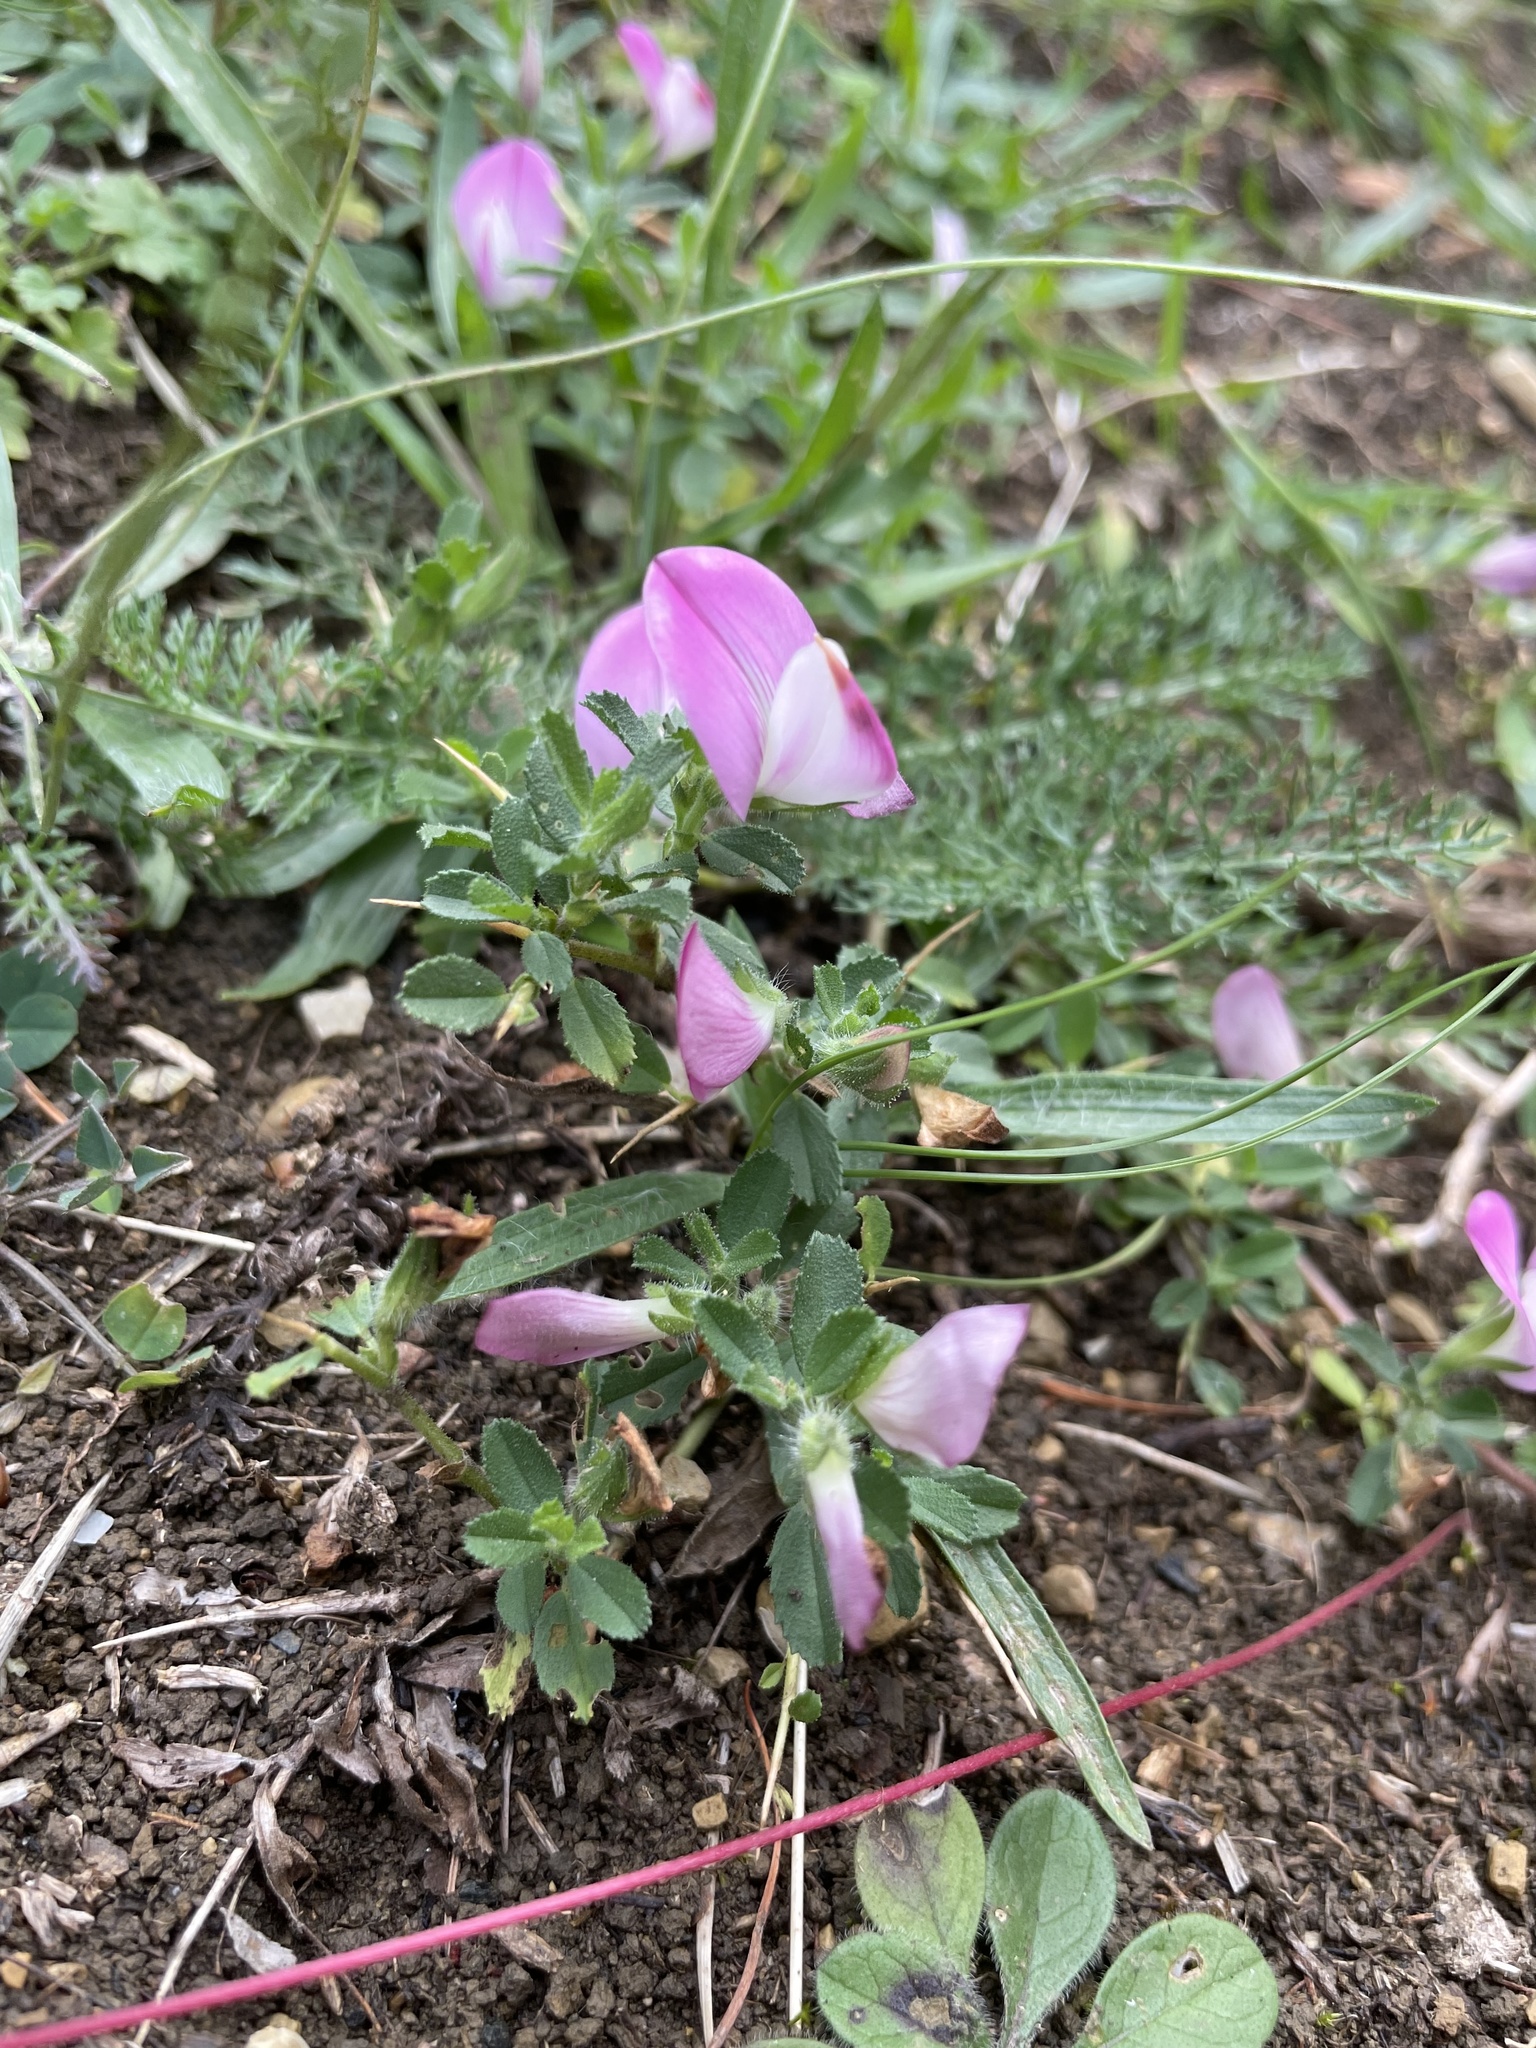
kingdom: Plantae
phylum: Tracheophyta
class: Magnoliopsida
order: Fabales
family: Fabaceae
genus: Ononis
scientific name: Ononis spinosa
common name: Spiny restharrow
